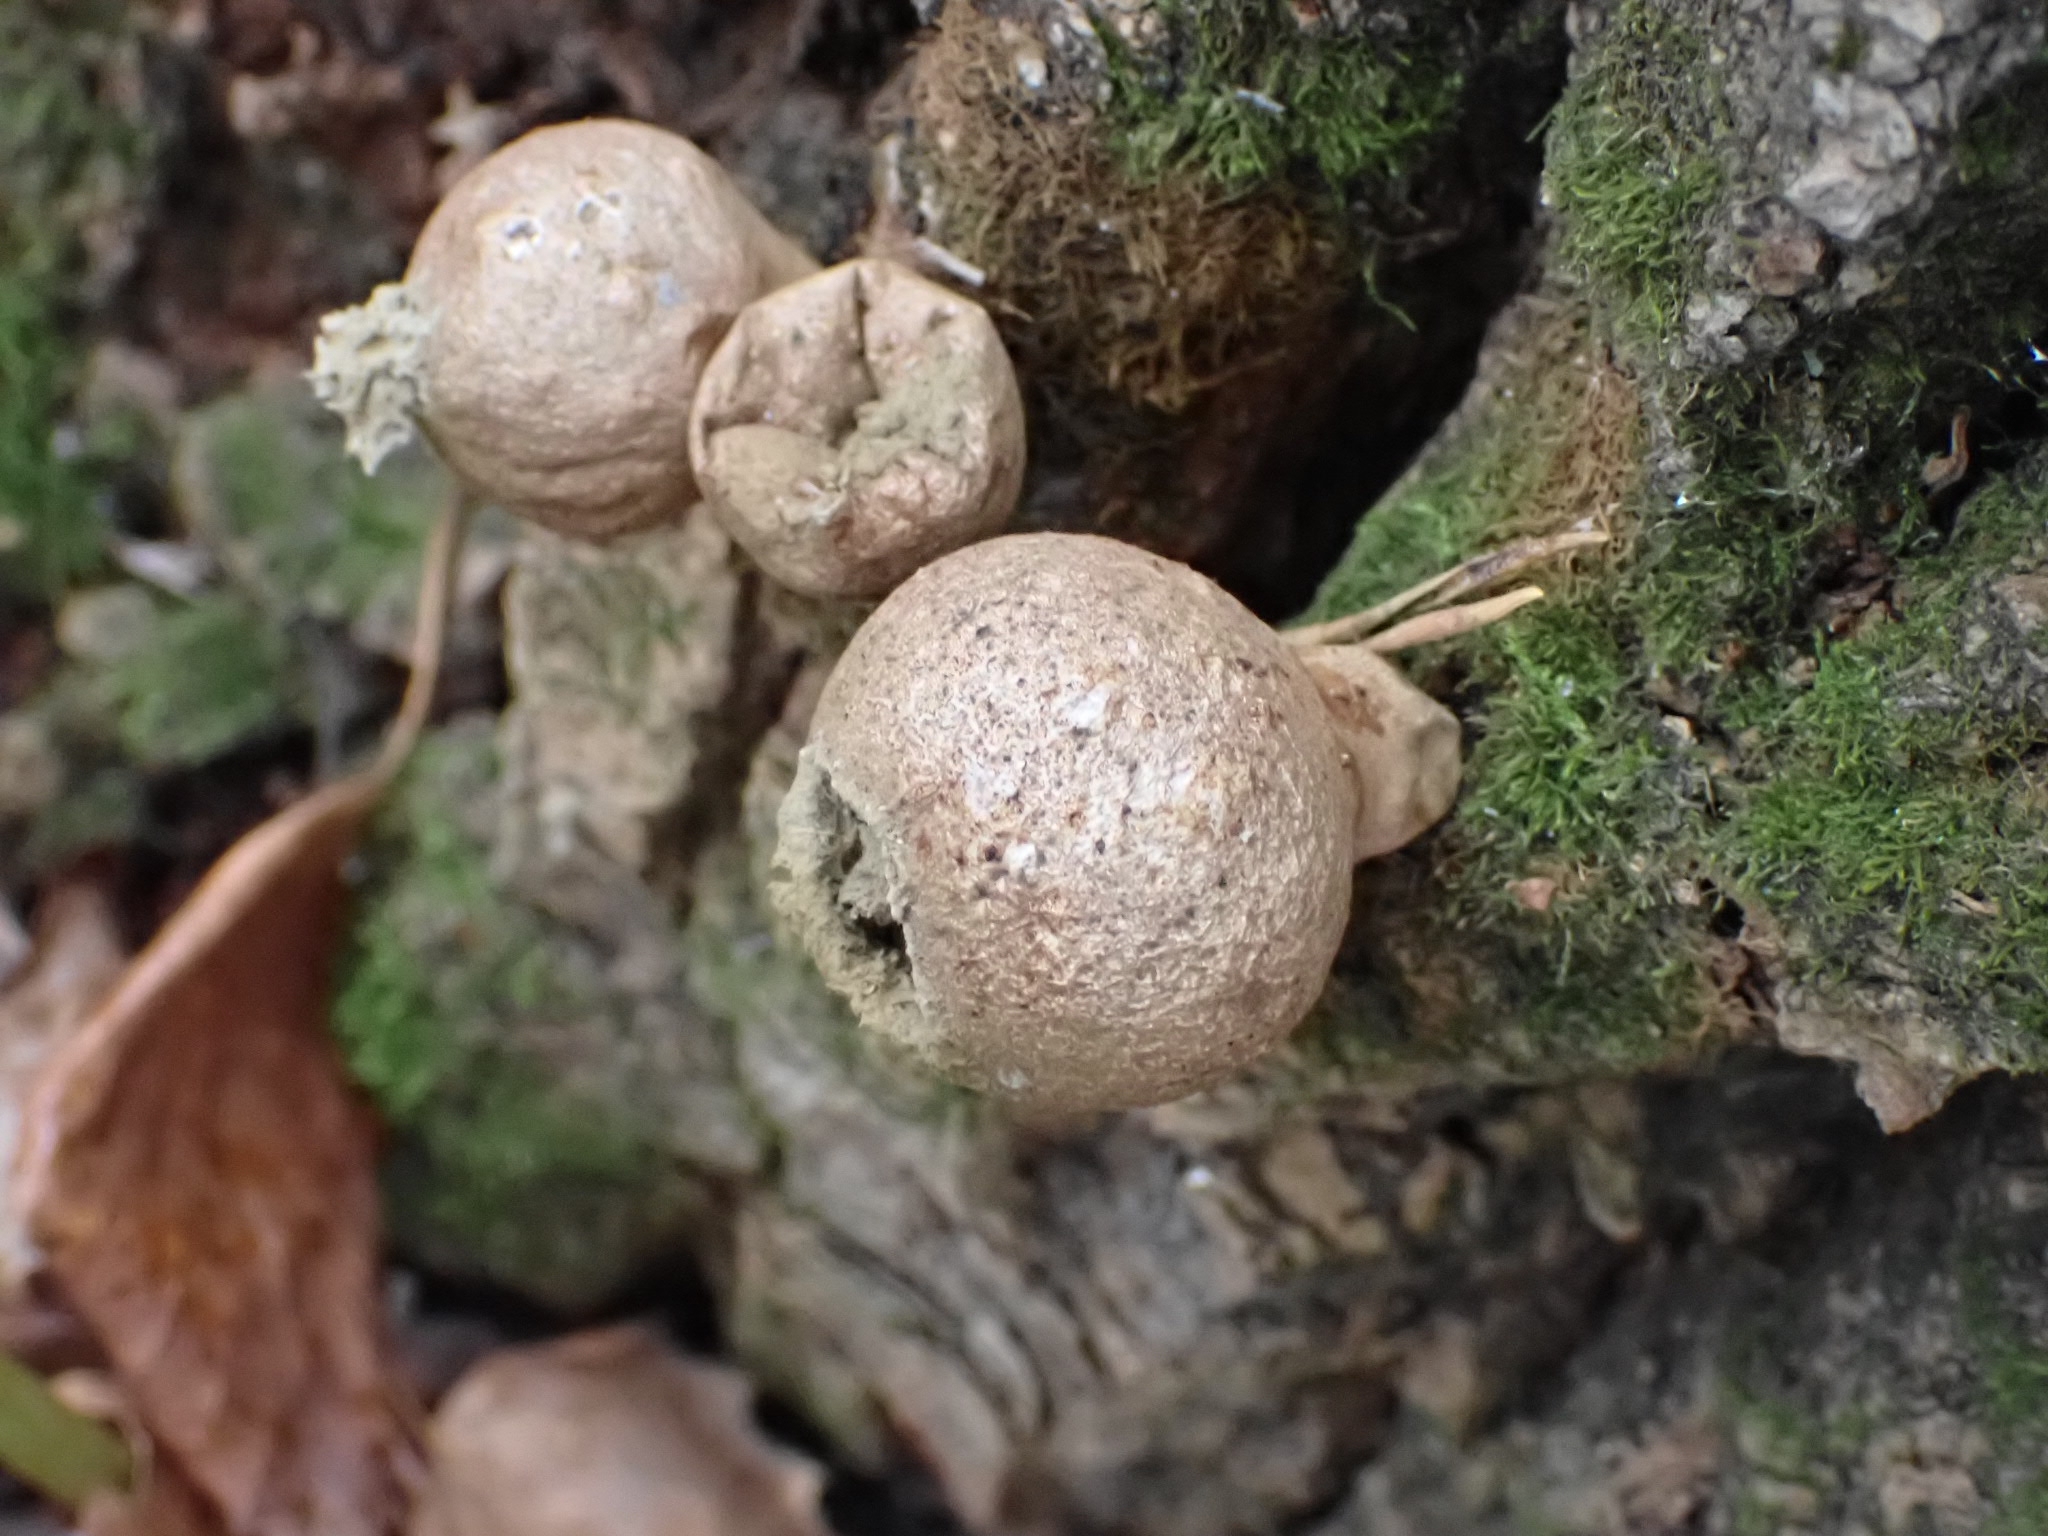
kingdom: Fungi
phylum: Basidiomycota
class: Agaricomycetes
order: Agaricales
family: Lycoperdaceae
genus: Apioperdon
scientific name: Apioperdon pyriforme
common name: Pear-shaped puffball
